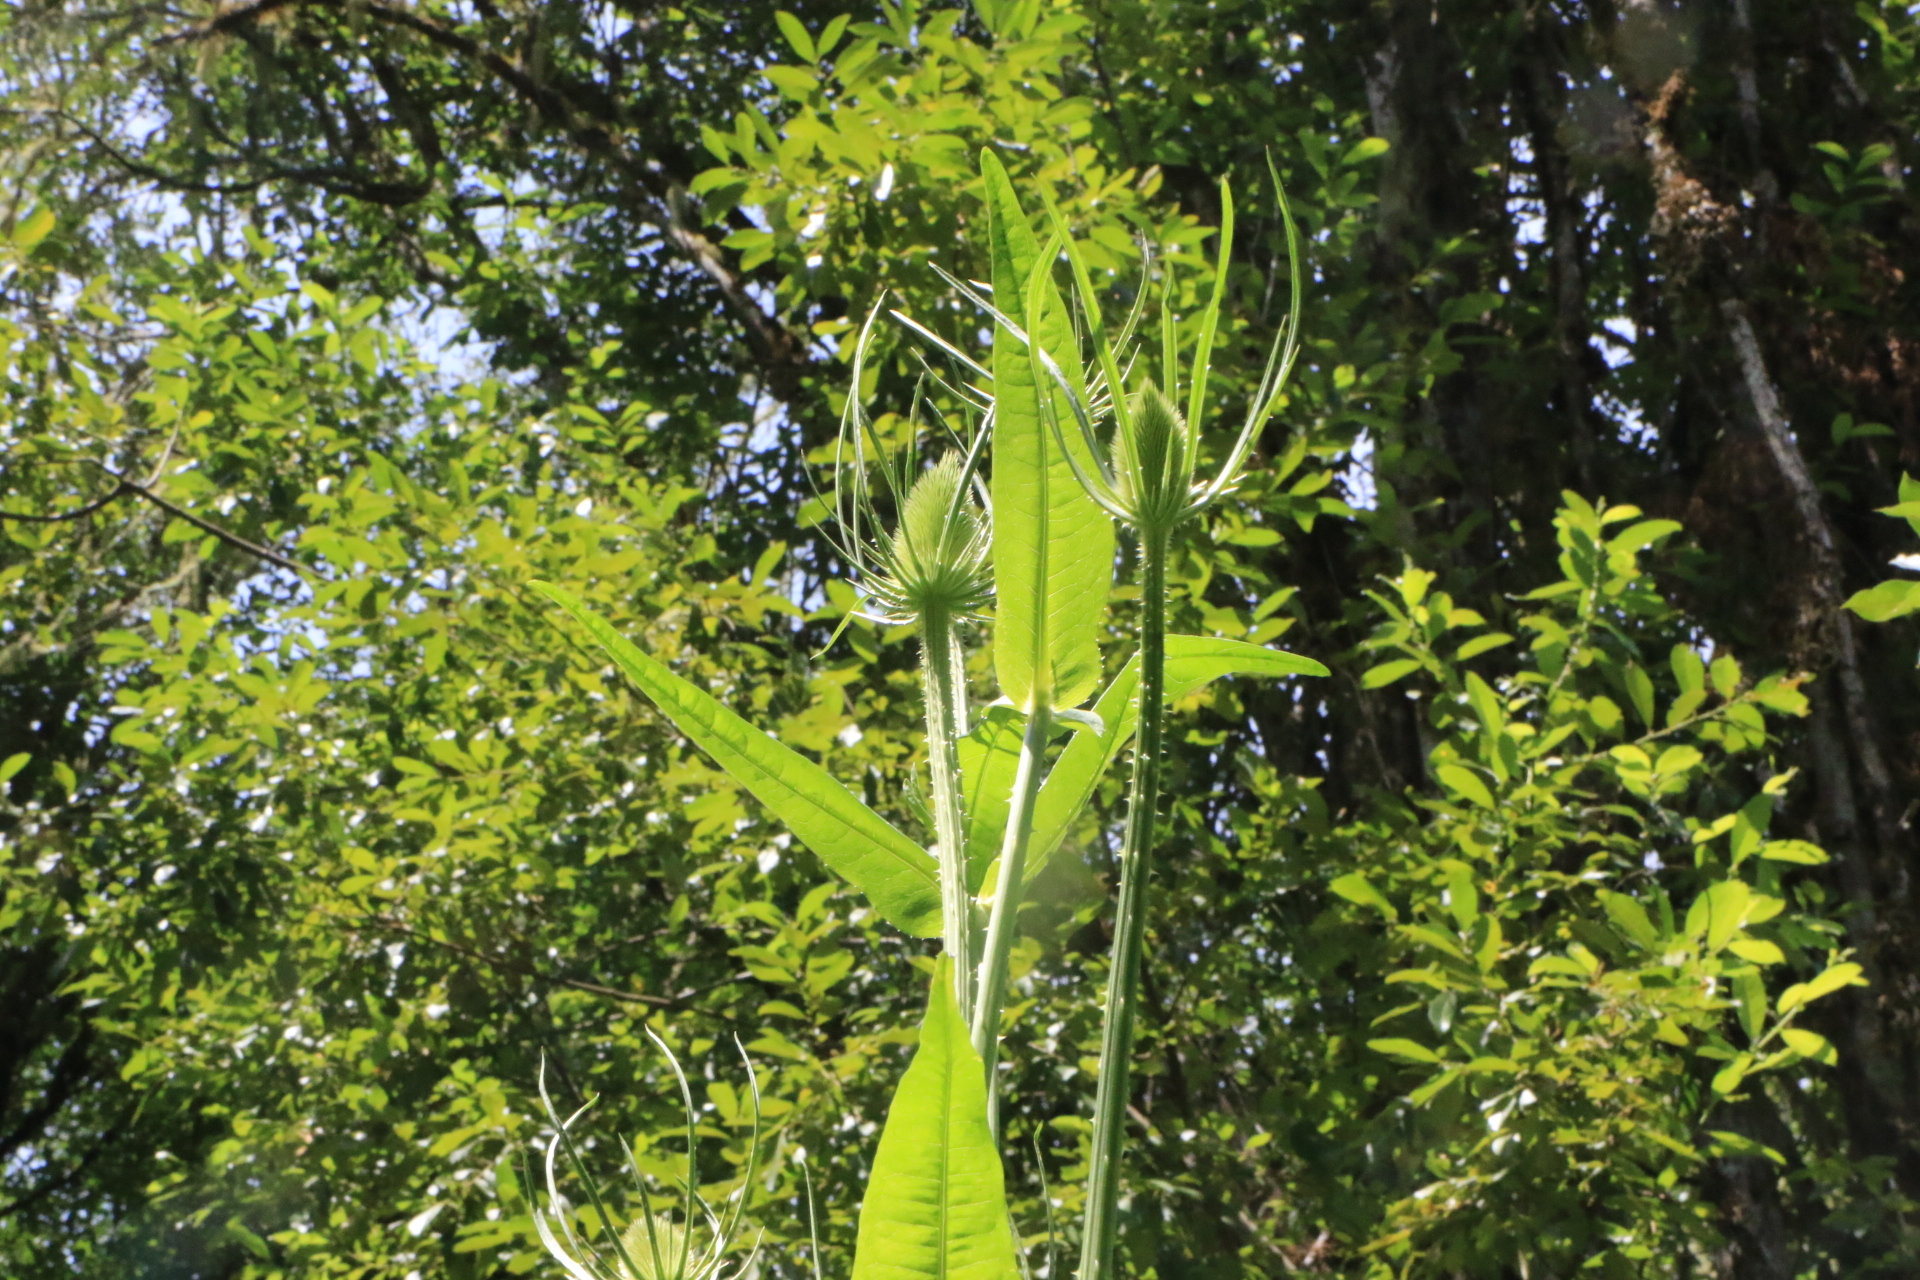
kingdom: Plantae
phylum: Tracheophyta
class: Magnoliopsida
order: Dipsacales
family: Caprifoliaceae
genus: Dipsacus
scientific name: Dipsacus fullonum
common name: Teasel
